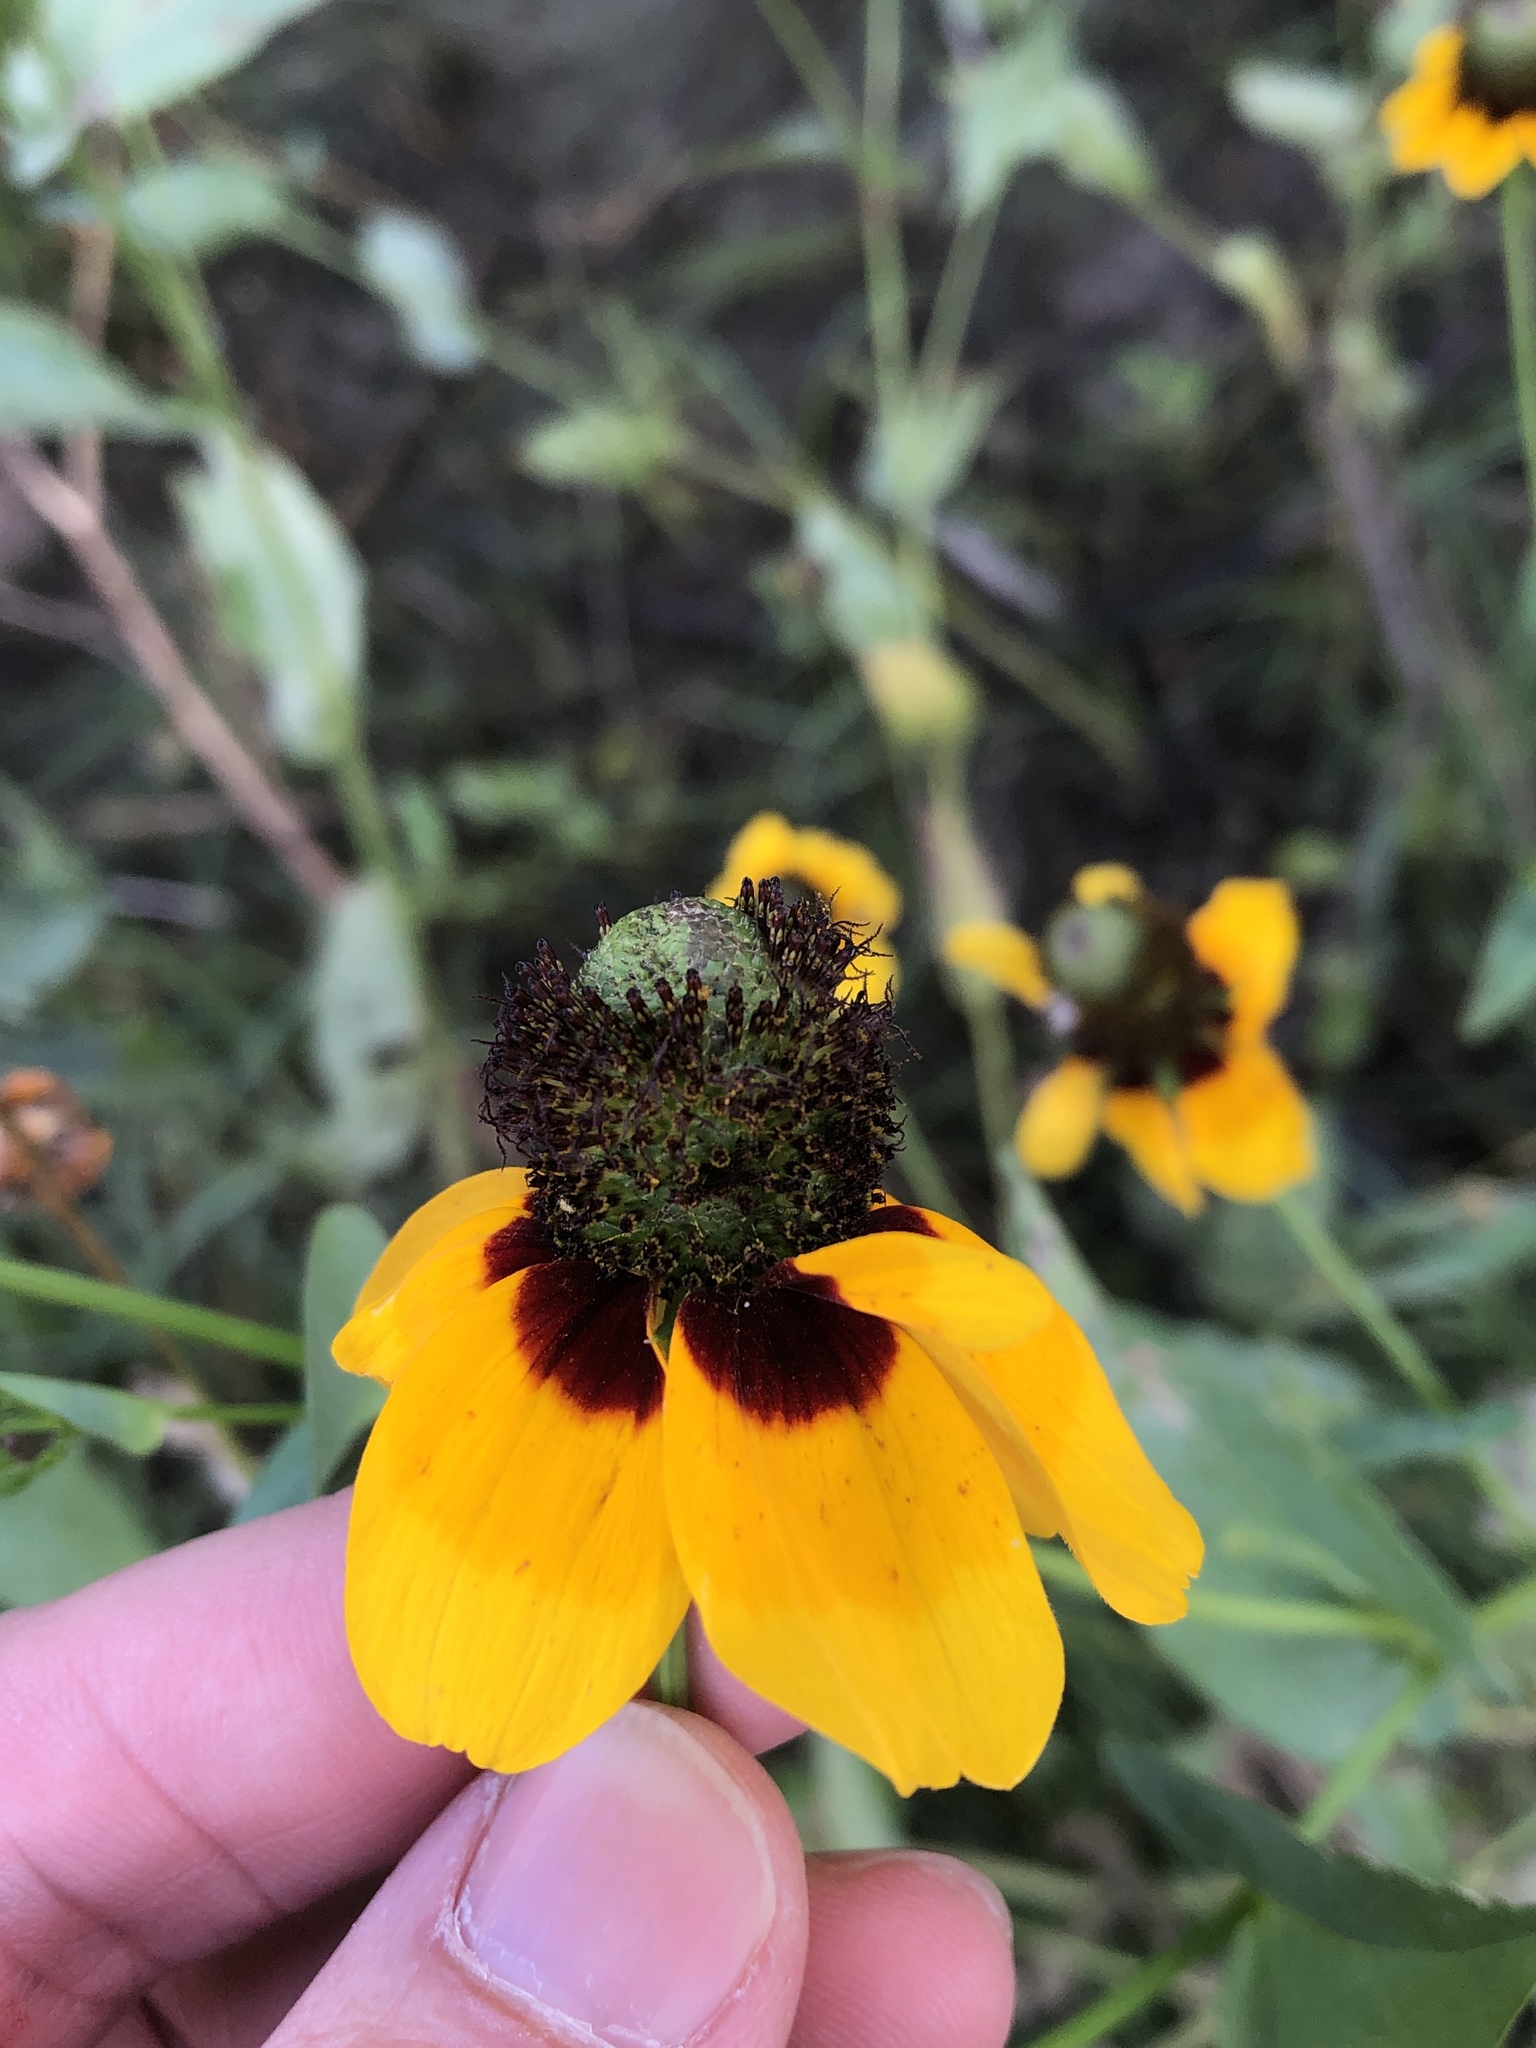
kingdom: Plantae
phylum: Tracheophyta
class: Magnoliopsida
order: Asterales
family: Asteraceae
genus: Rudbeckia
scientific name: Rudbeckia amplexicaulis
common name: Clasping-leaf coneflower
